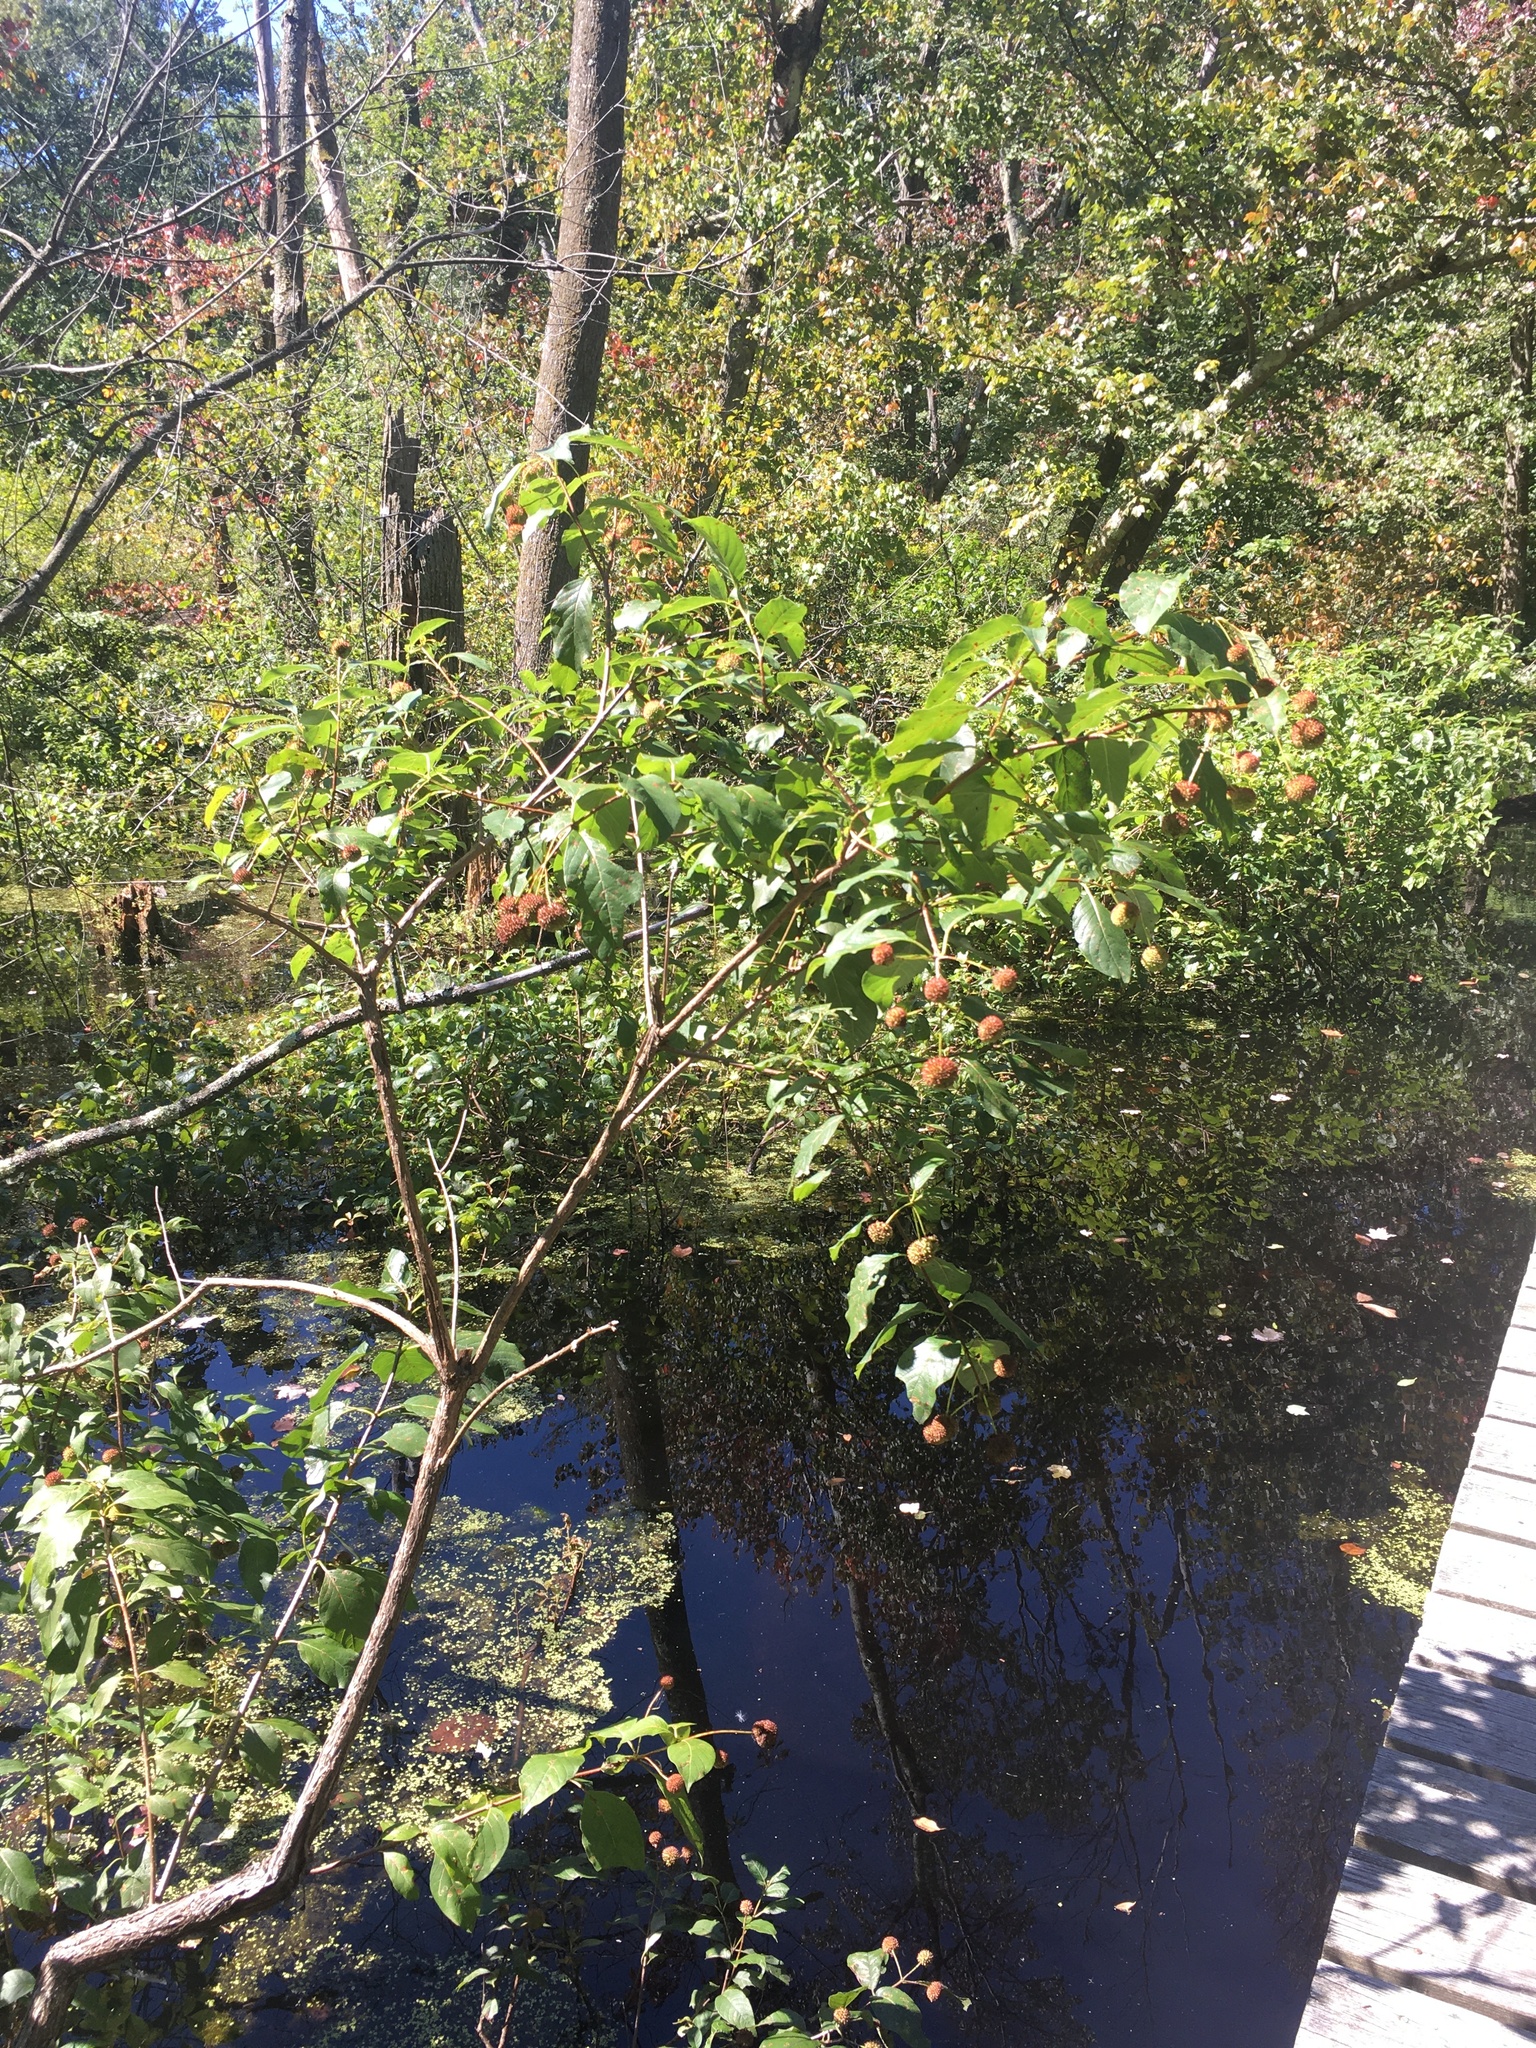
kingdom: Plantae
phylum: Tracheophyta
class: Magnoliopsida
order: Gentianales
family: Rubiaceae
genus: Cephalanthus
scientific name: Cephalanthus occidentalis
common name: Button-willow
